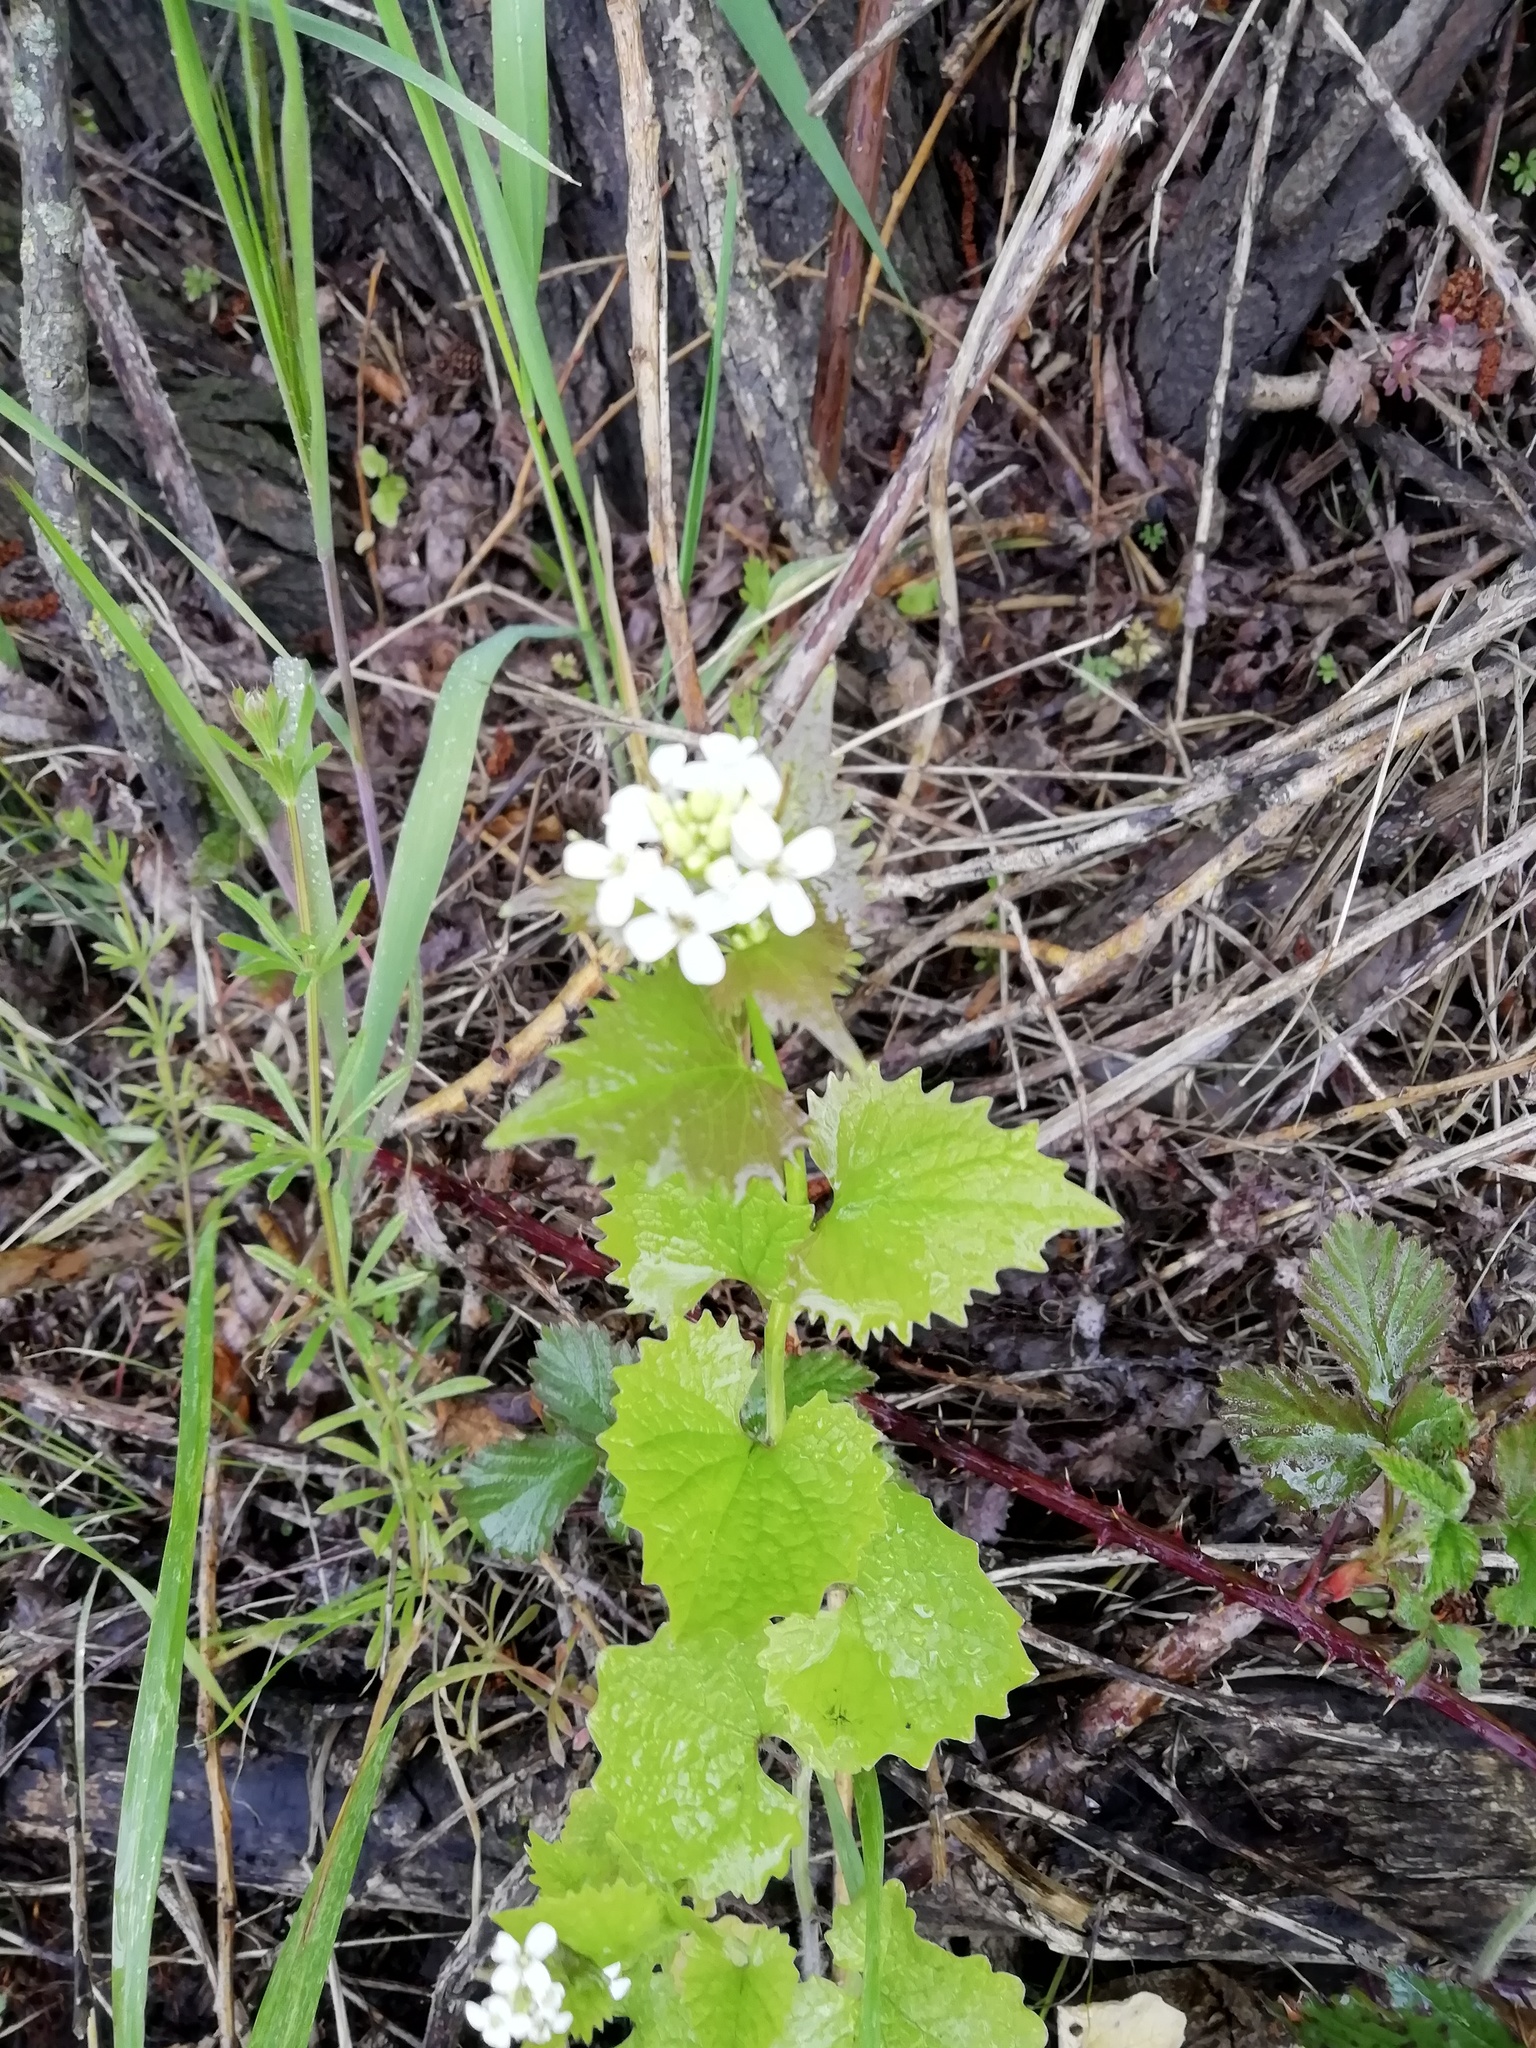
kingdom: Plantae
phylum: Tracheophyta
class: Magnoliopsida
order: Brassicales
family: Brassicaceae
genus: Alliaria
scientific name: Alliaria petiolata
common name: Garlic mustard
